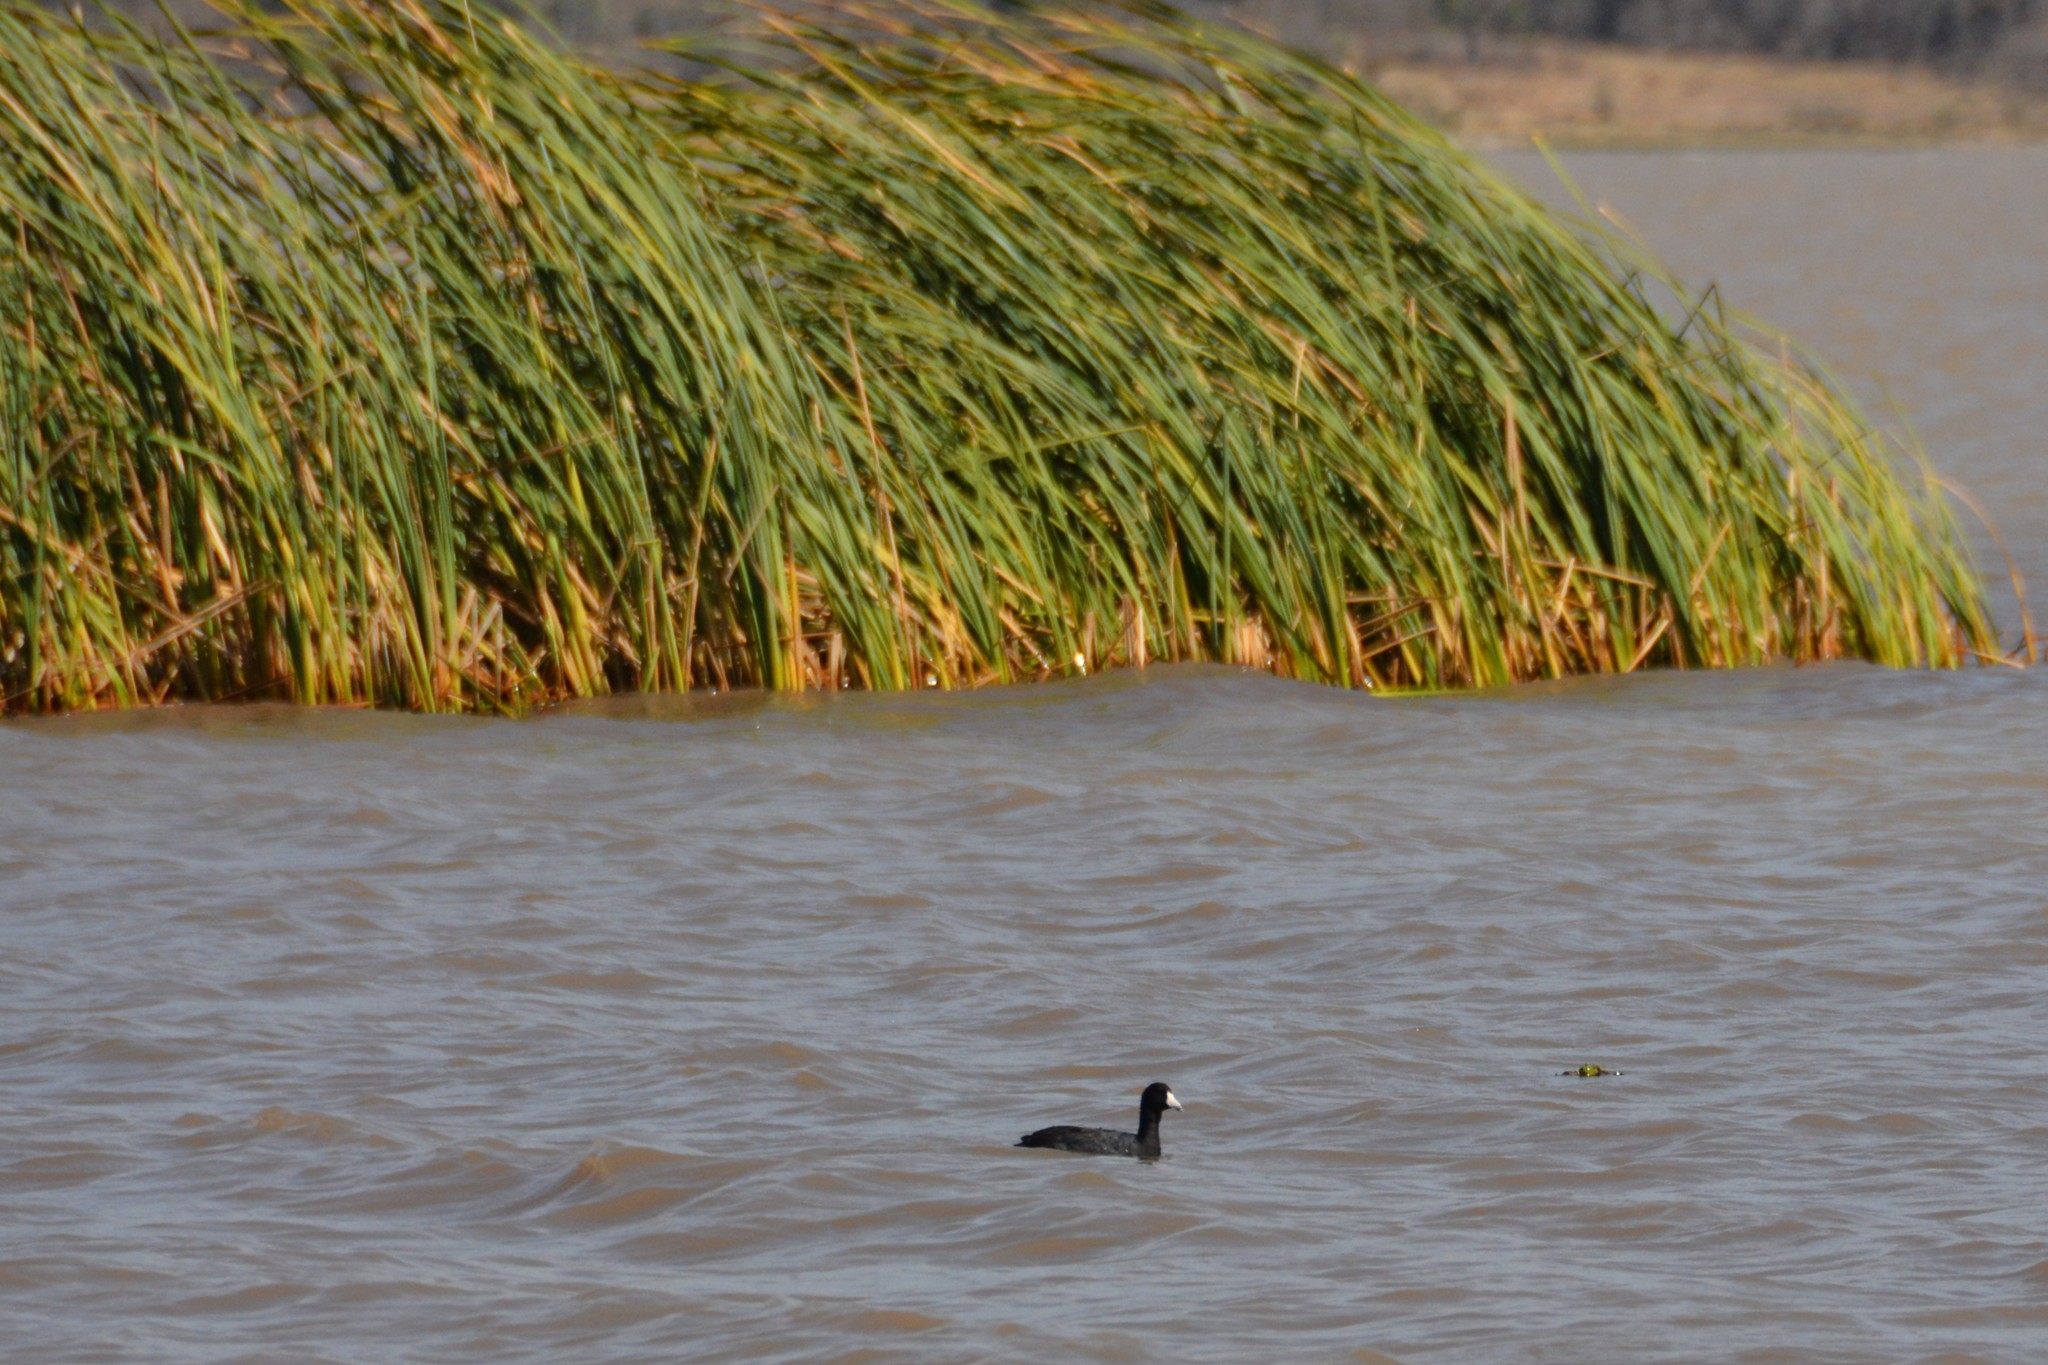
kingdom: Animalia
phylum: Chordata
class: Aves
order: Gruiformes
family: Rallidae
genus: Fulica
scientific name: Fulica americana
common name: American coot
